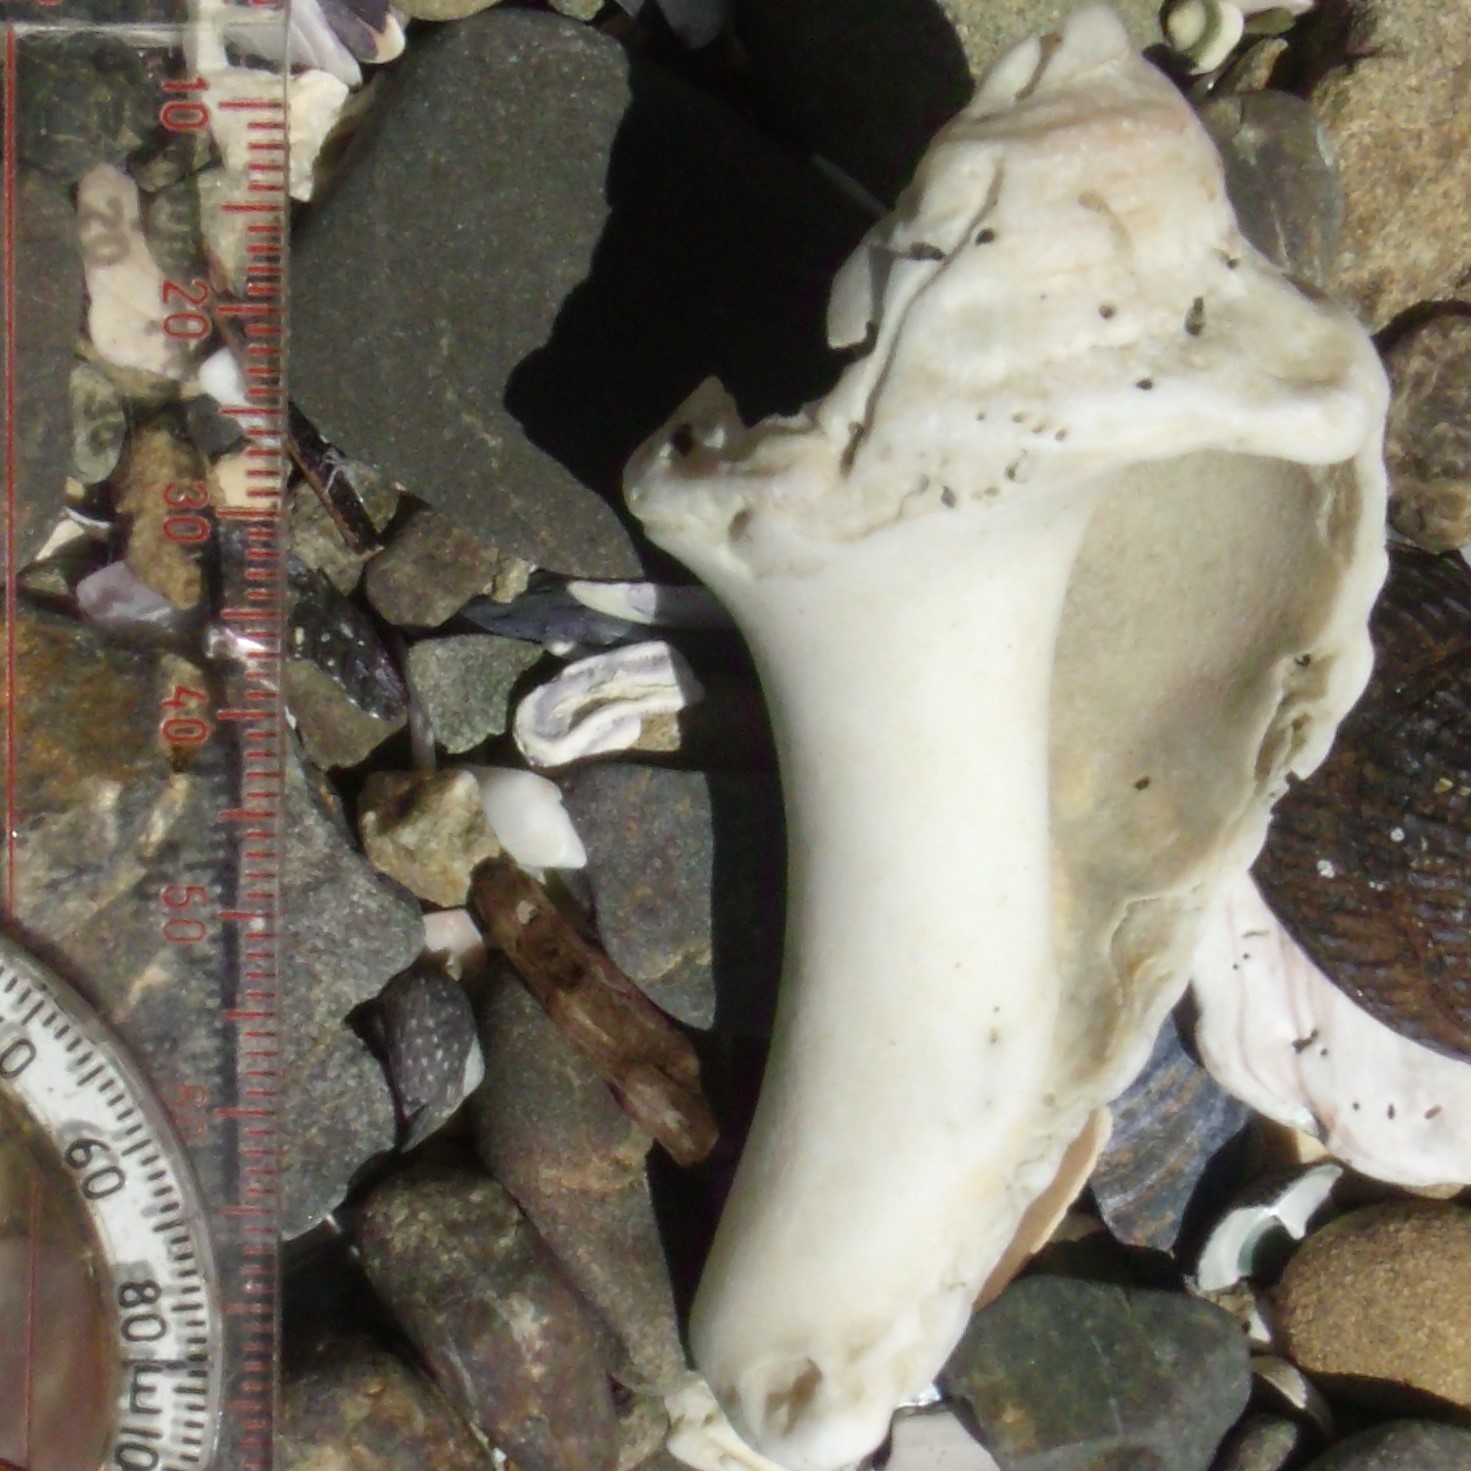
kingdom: Animalia
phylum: Mollusca
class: Gastropoda
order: Neogastropoda
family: Muricidae
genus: Dicathais
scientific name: Dicathais orbita
